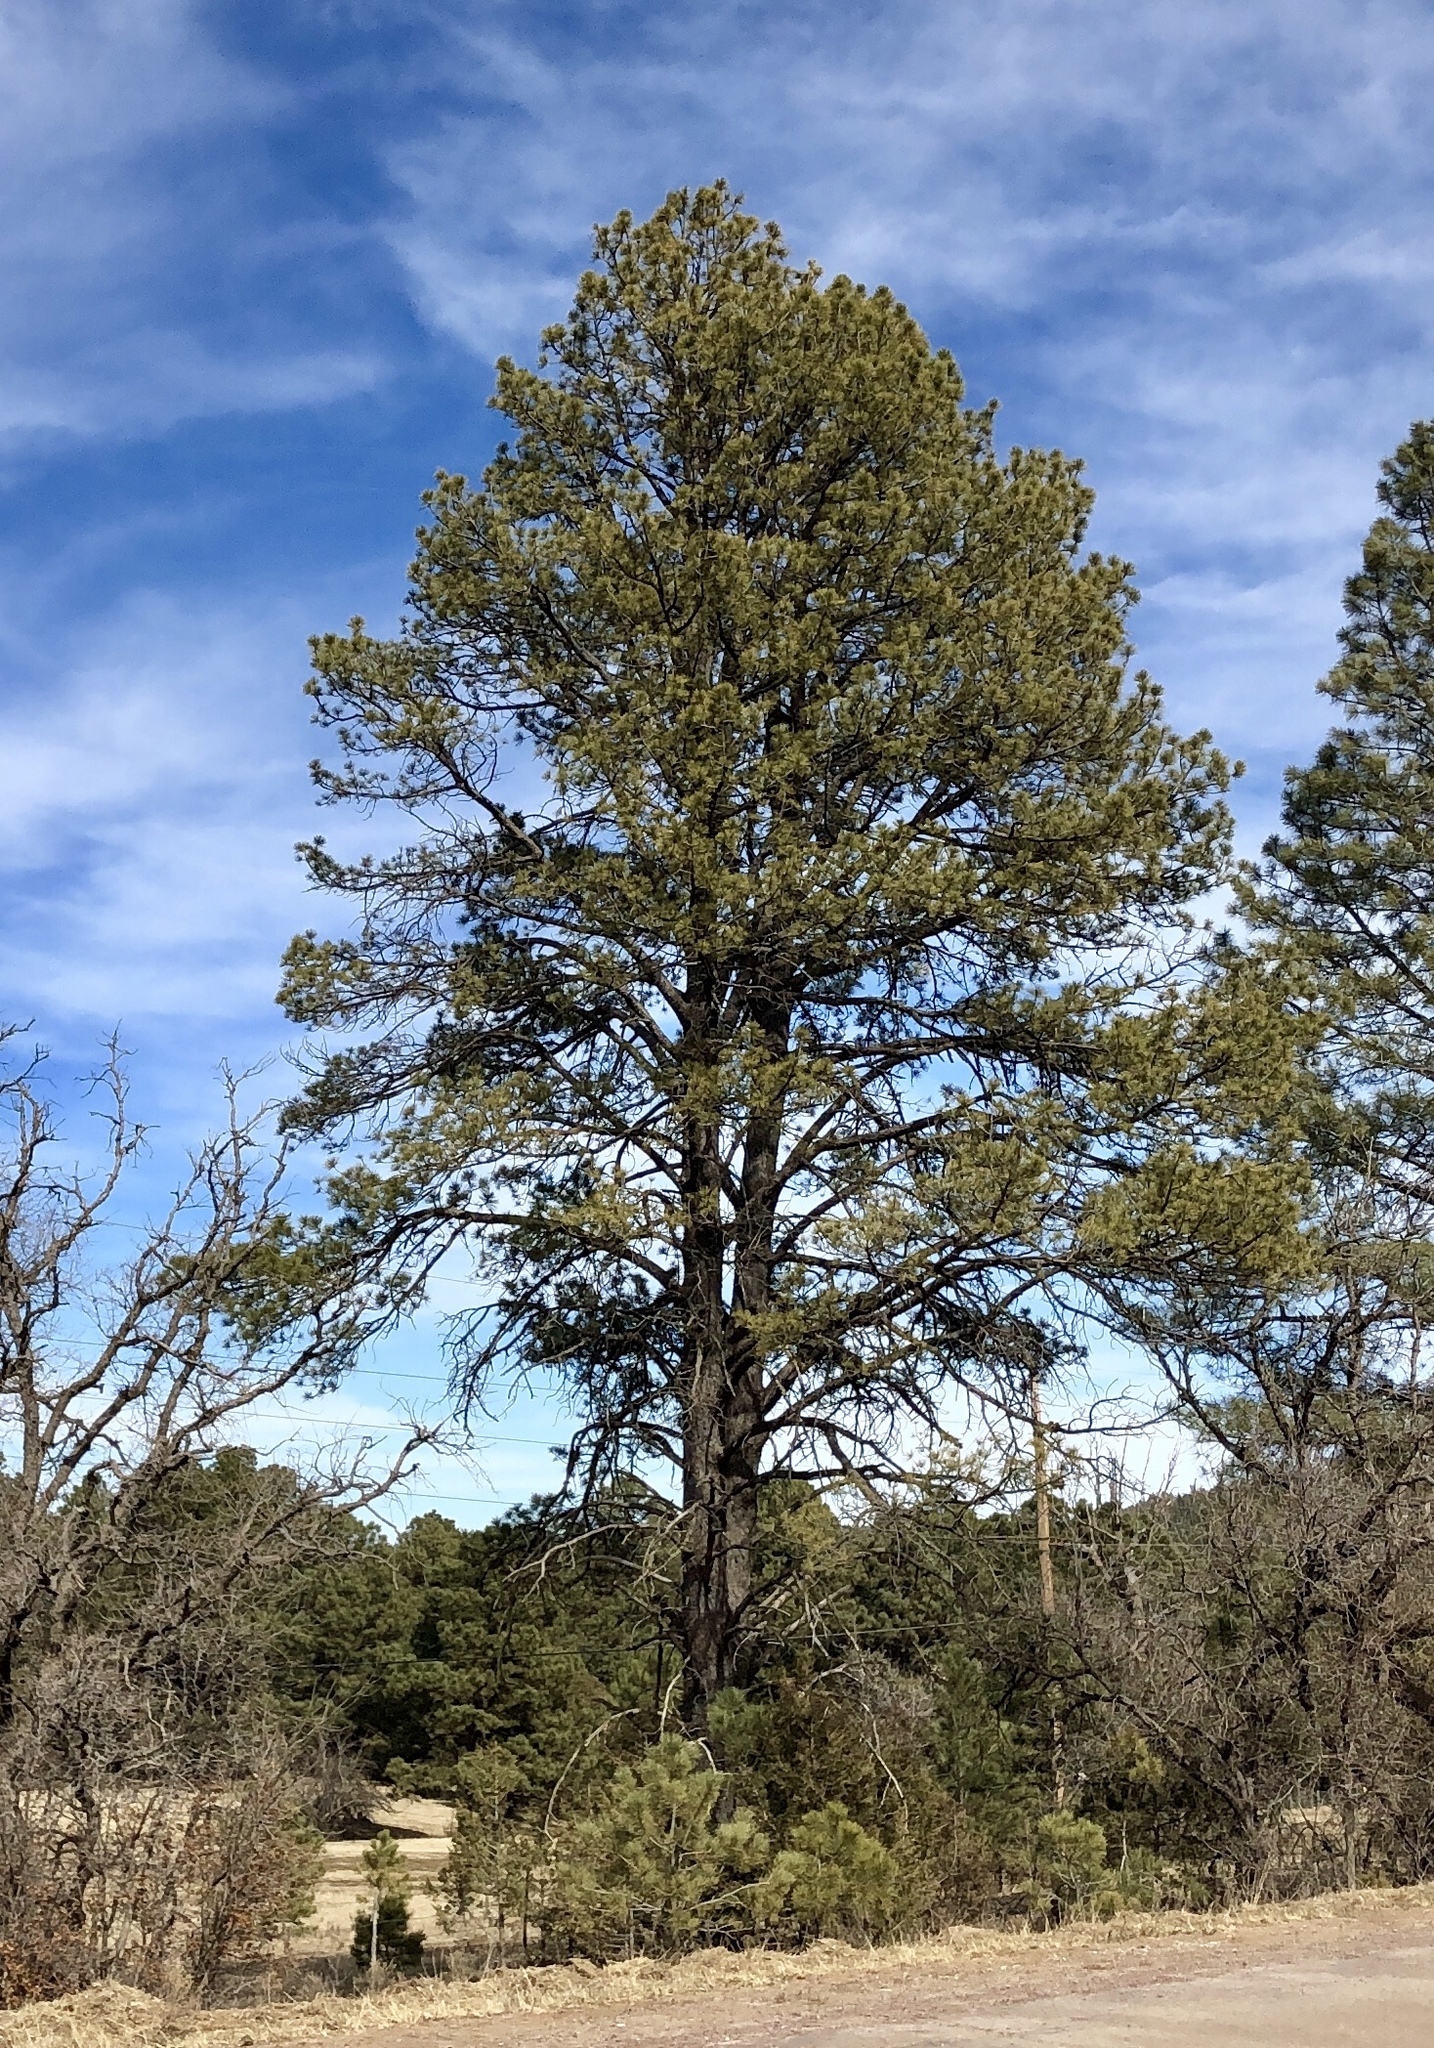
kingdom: Plantae
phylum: Tracheophyta
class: Pinopsida
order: Pinales
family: Pinaceae
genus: Pinus
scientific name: Pinus ponderosa
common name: Western yellow-pine
